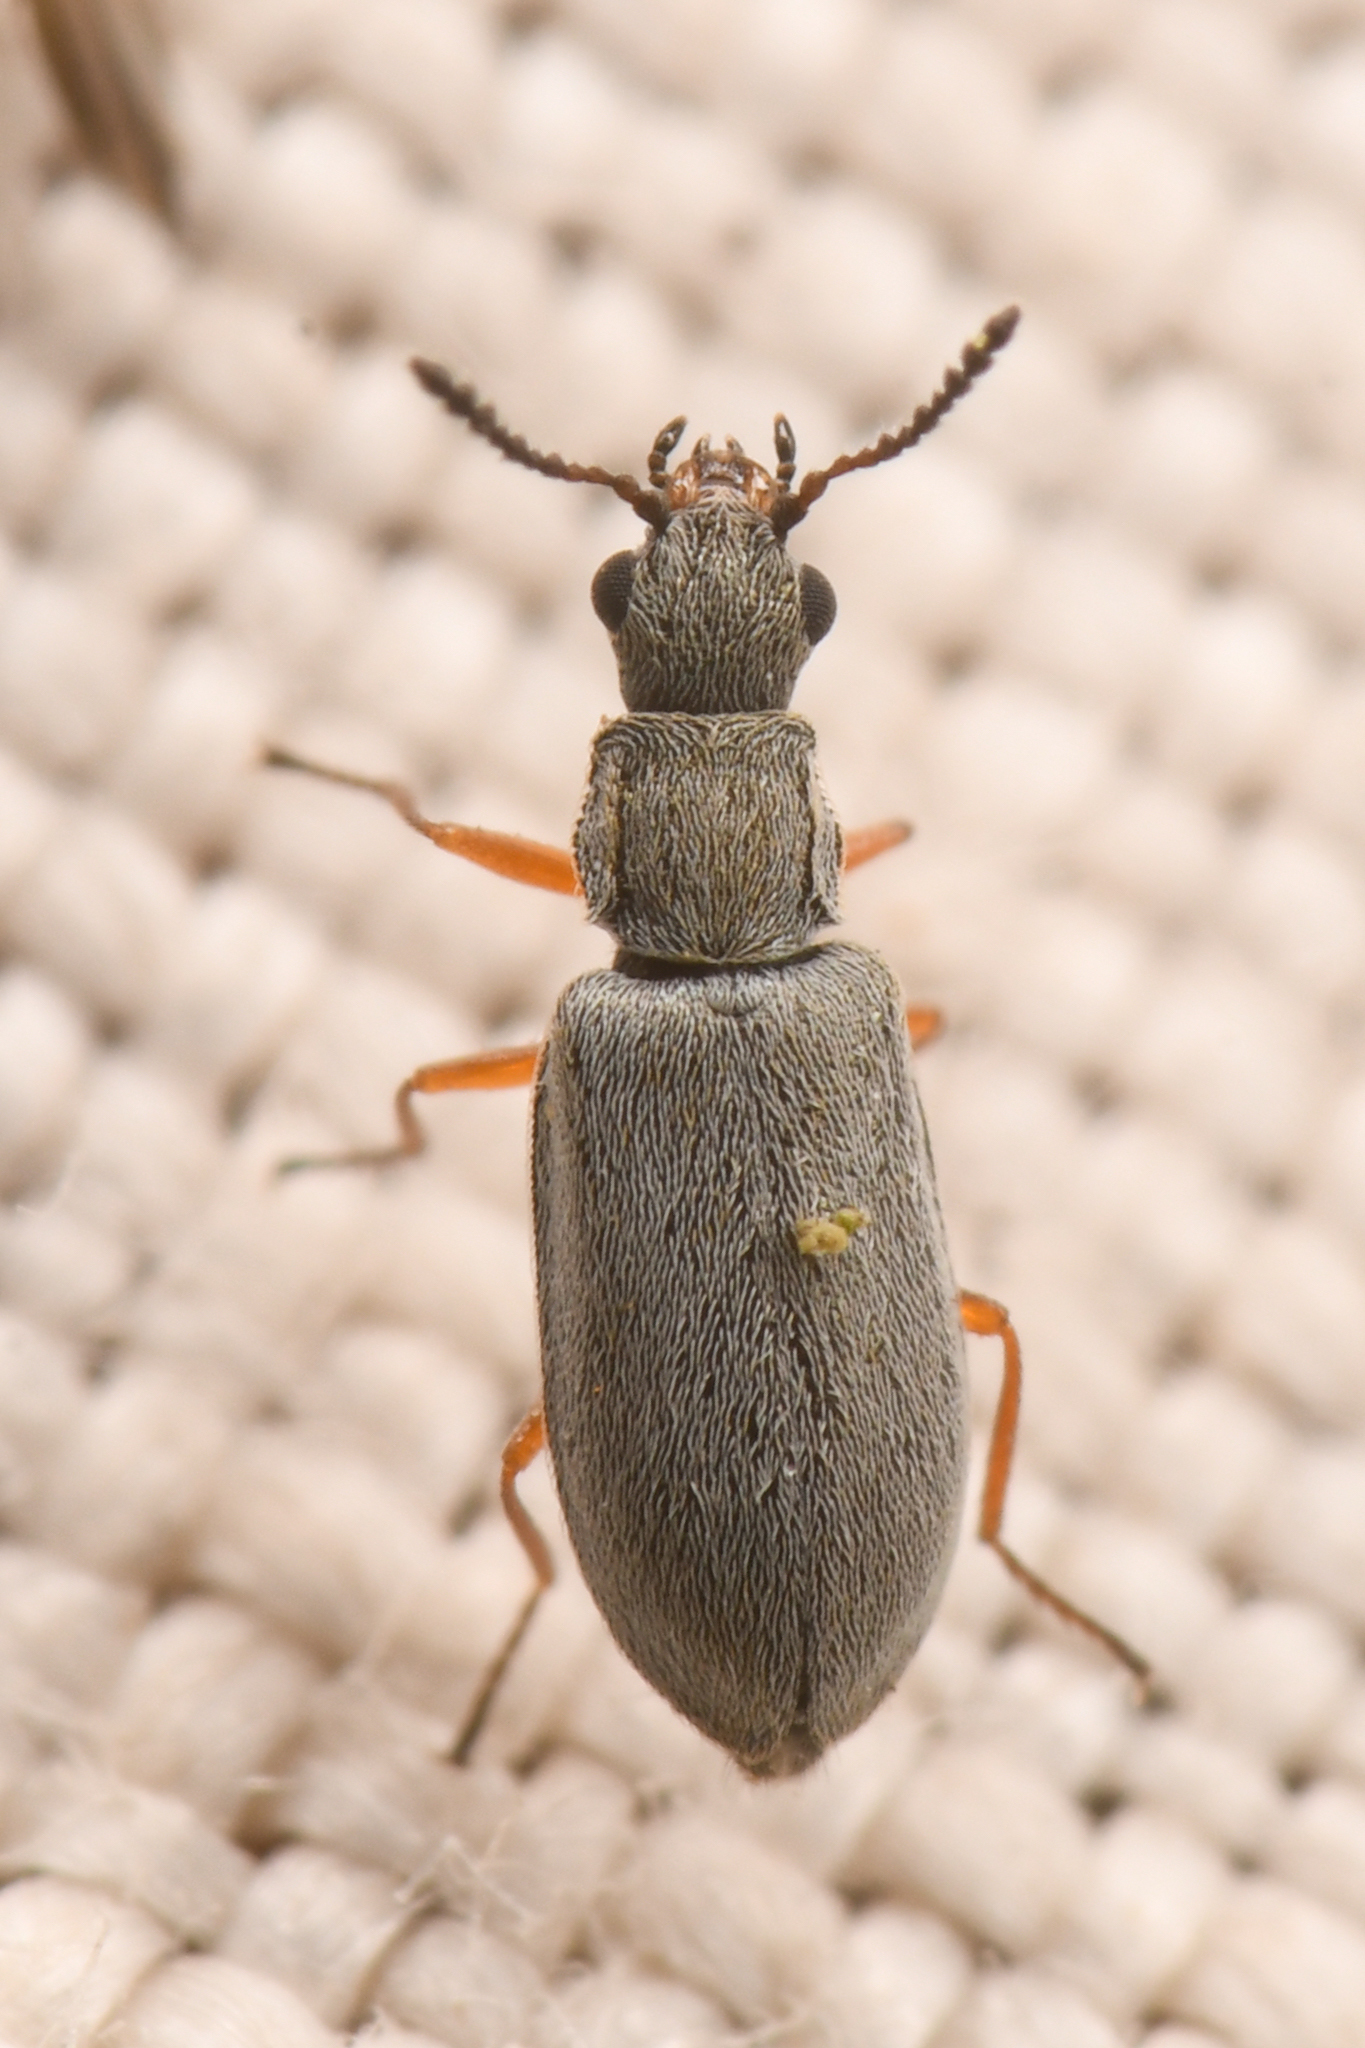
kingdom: Animalia
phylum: Arthropoda
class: Insecta
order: Coleoptera
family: Melyridae
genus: Vecturoides
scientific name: Vecturoides
